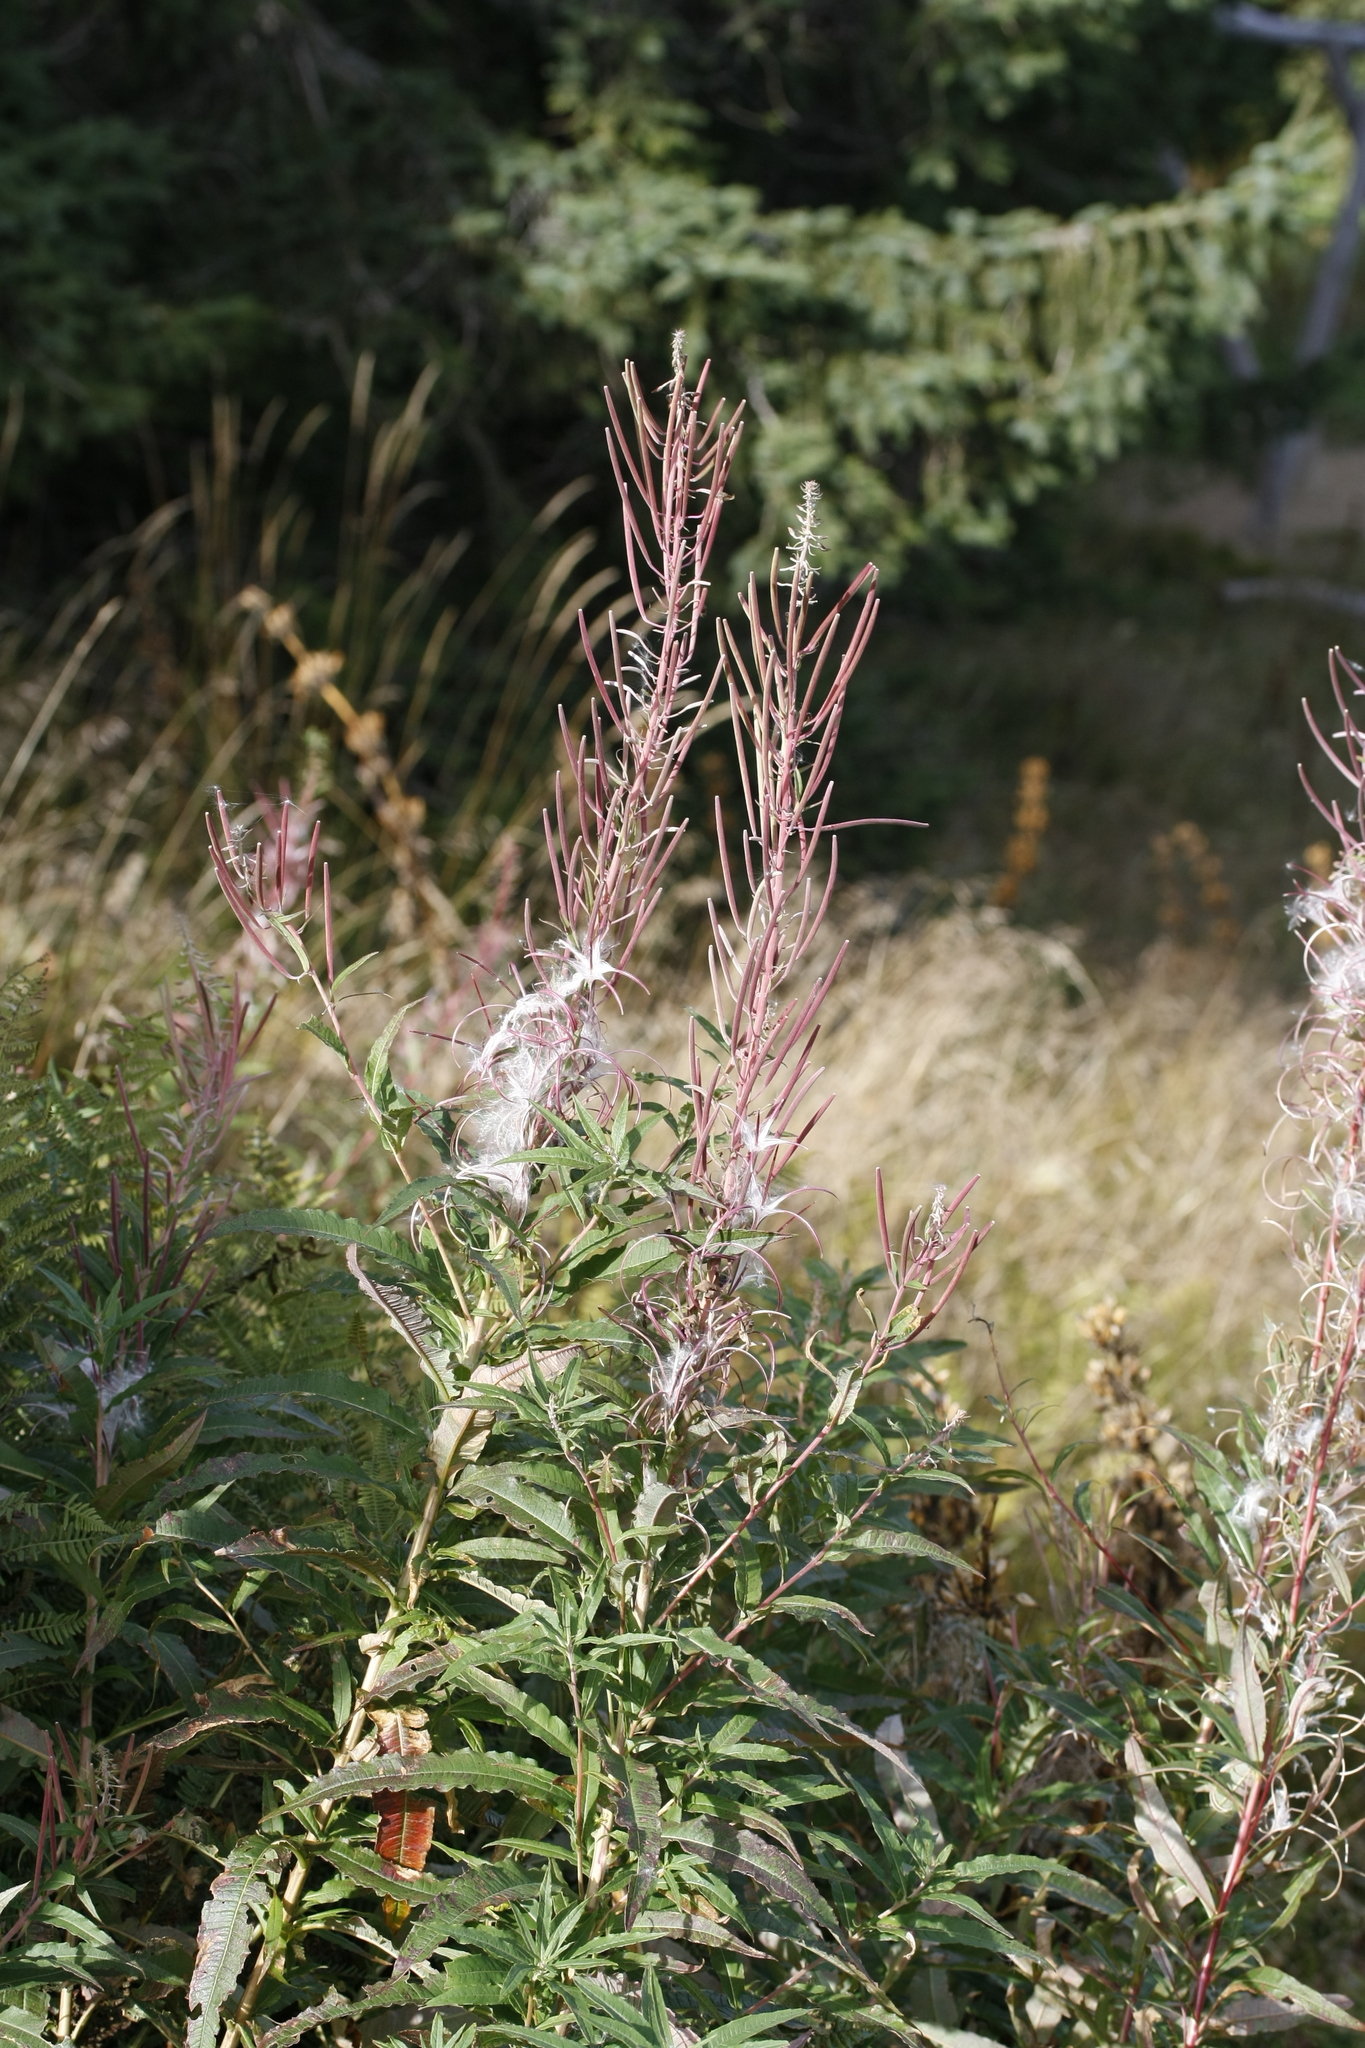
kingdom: Plantae
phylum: Tracheophyta
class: Magnoliopsida
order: Myrtales
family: Onagraceae
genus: Chamaenerion
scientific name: Chamaenerion angustifolium
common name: Fireweed
